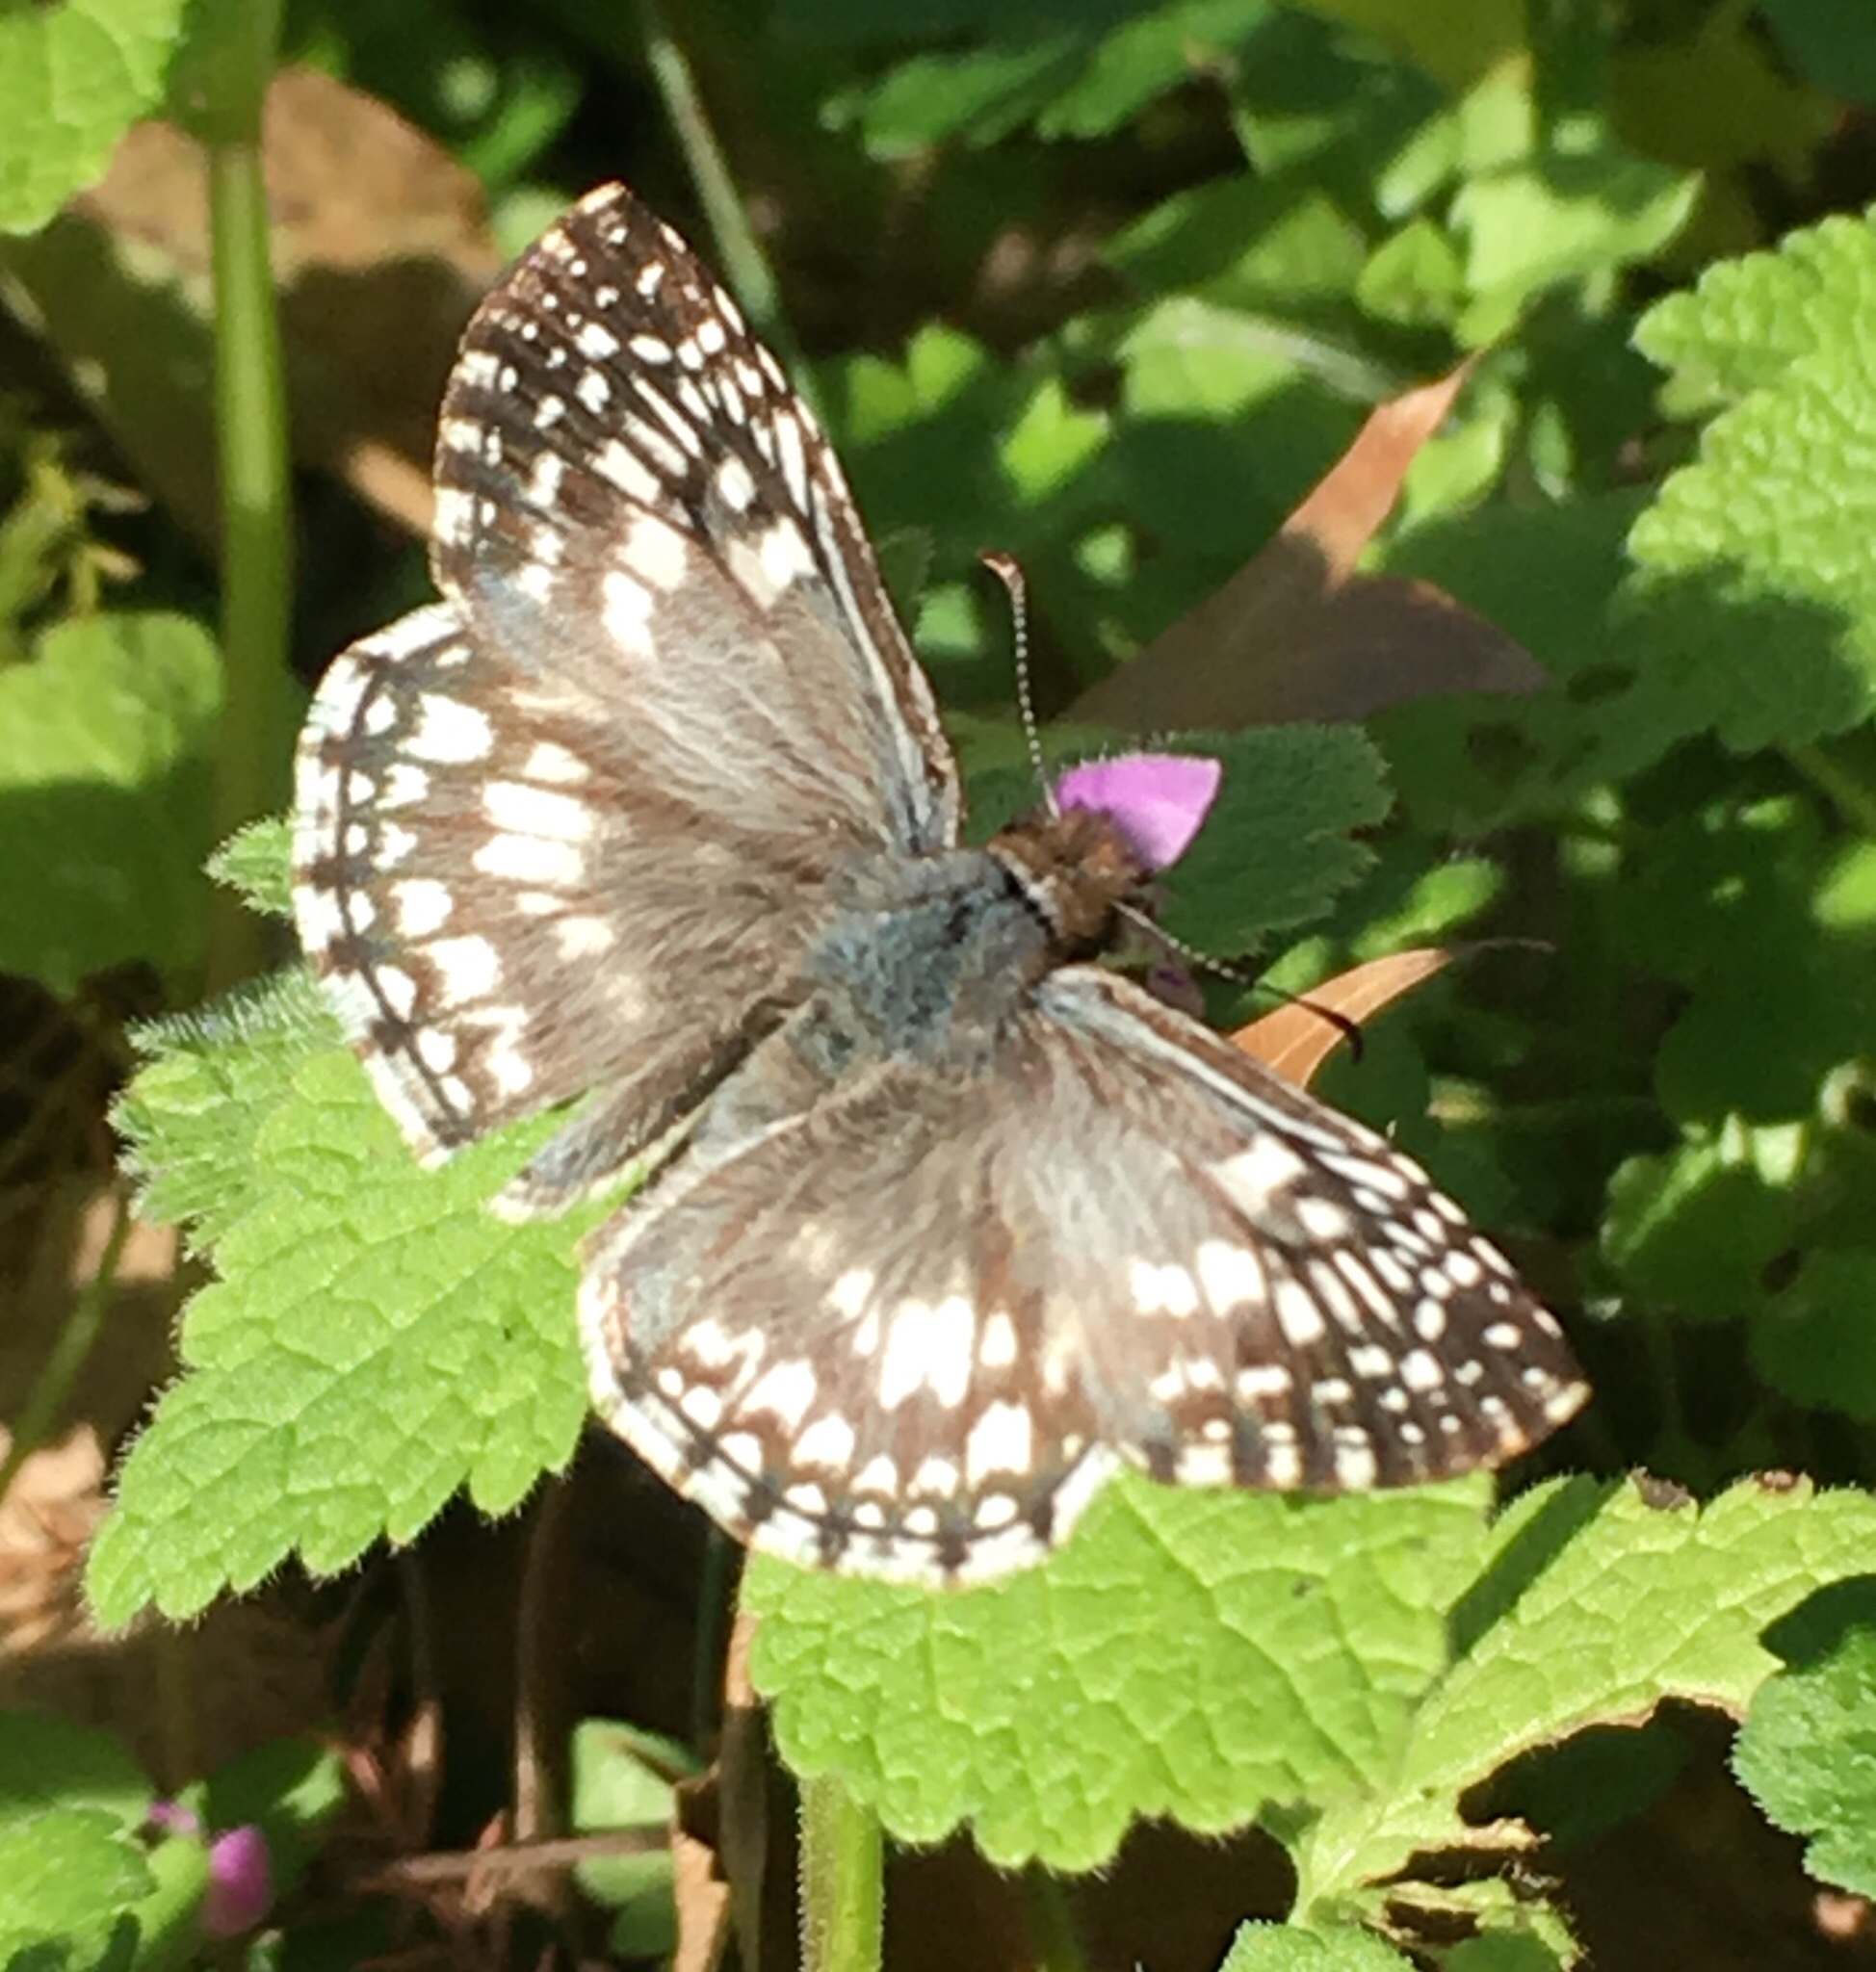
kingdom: Animalia
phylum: Arthropoda
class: Insecta
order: Lepidoptera
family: Hesperiidae
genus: Pyrgus
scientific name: Pyrgus oileus
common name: Tropical checkered-skipper
